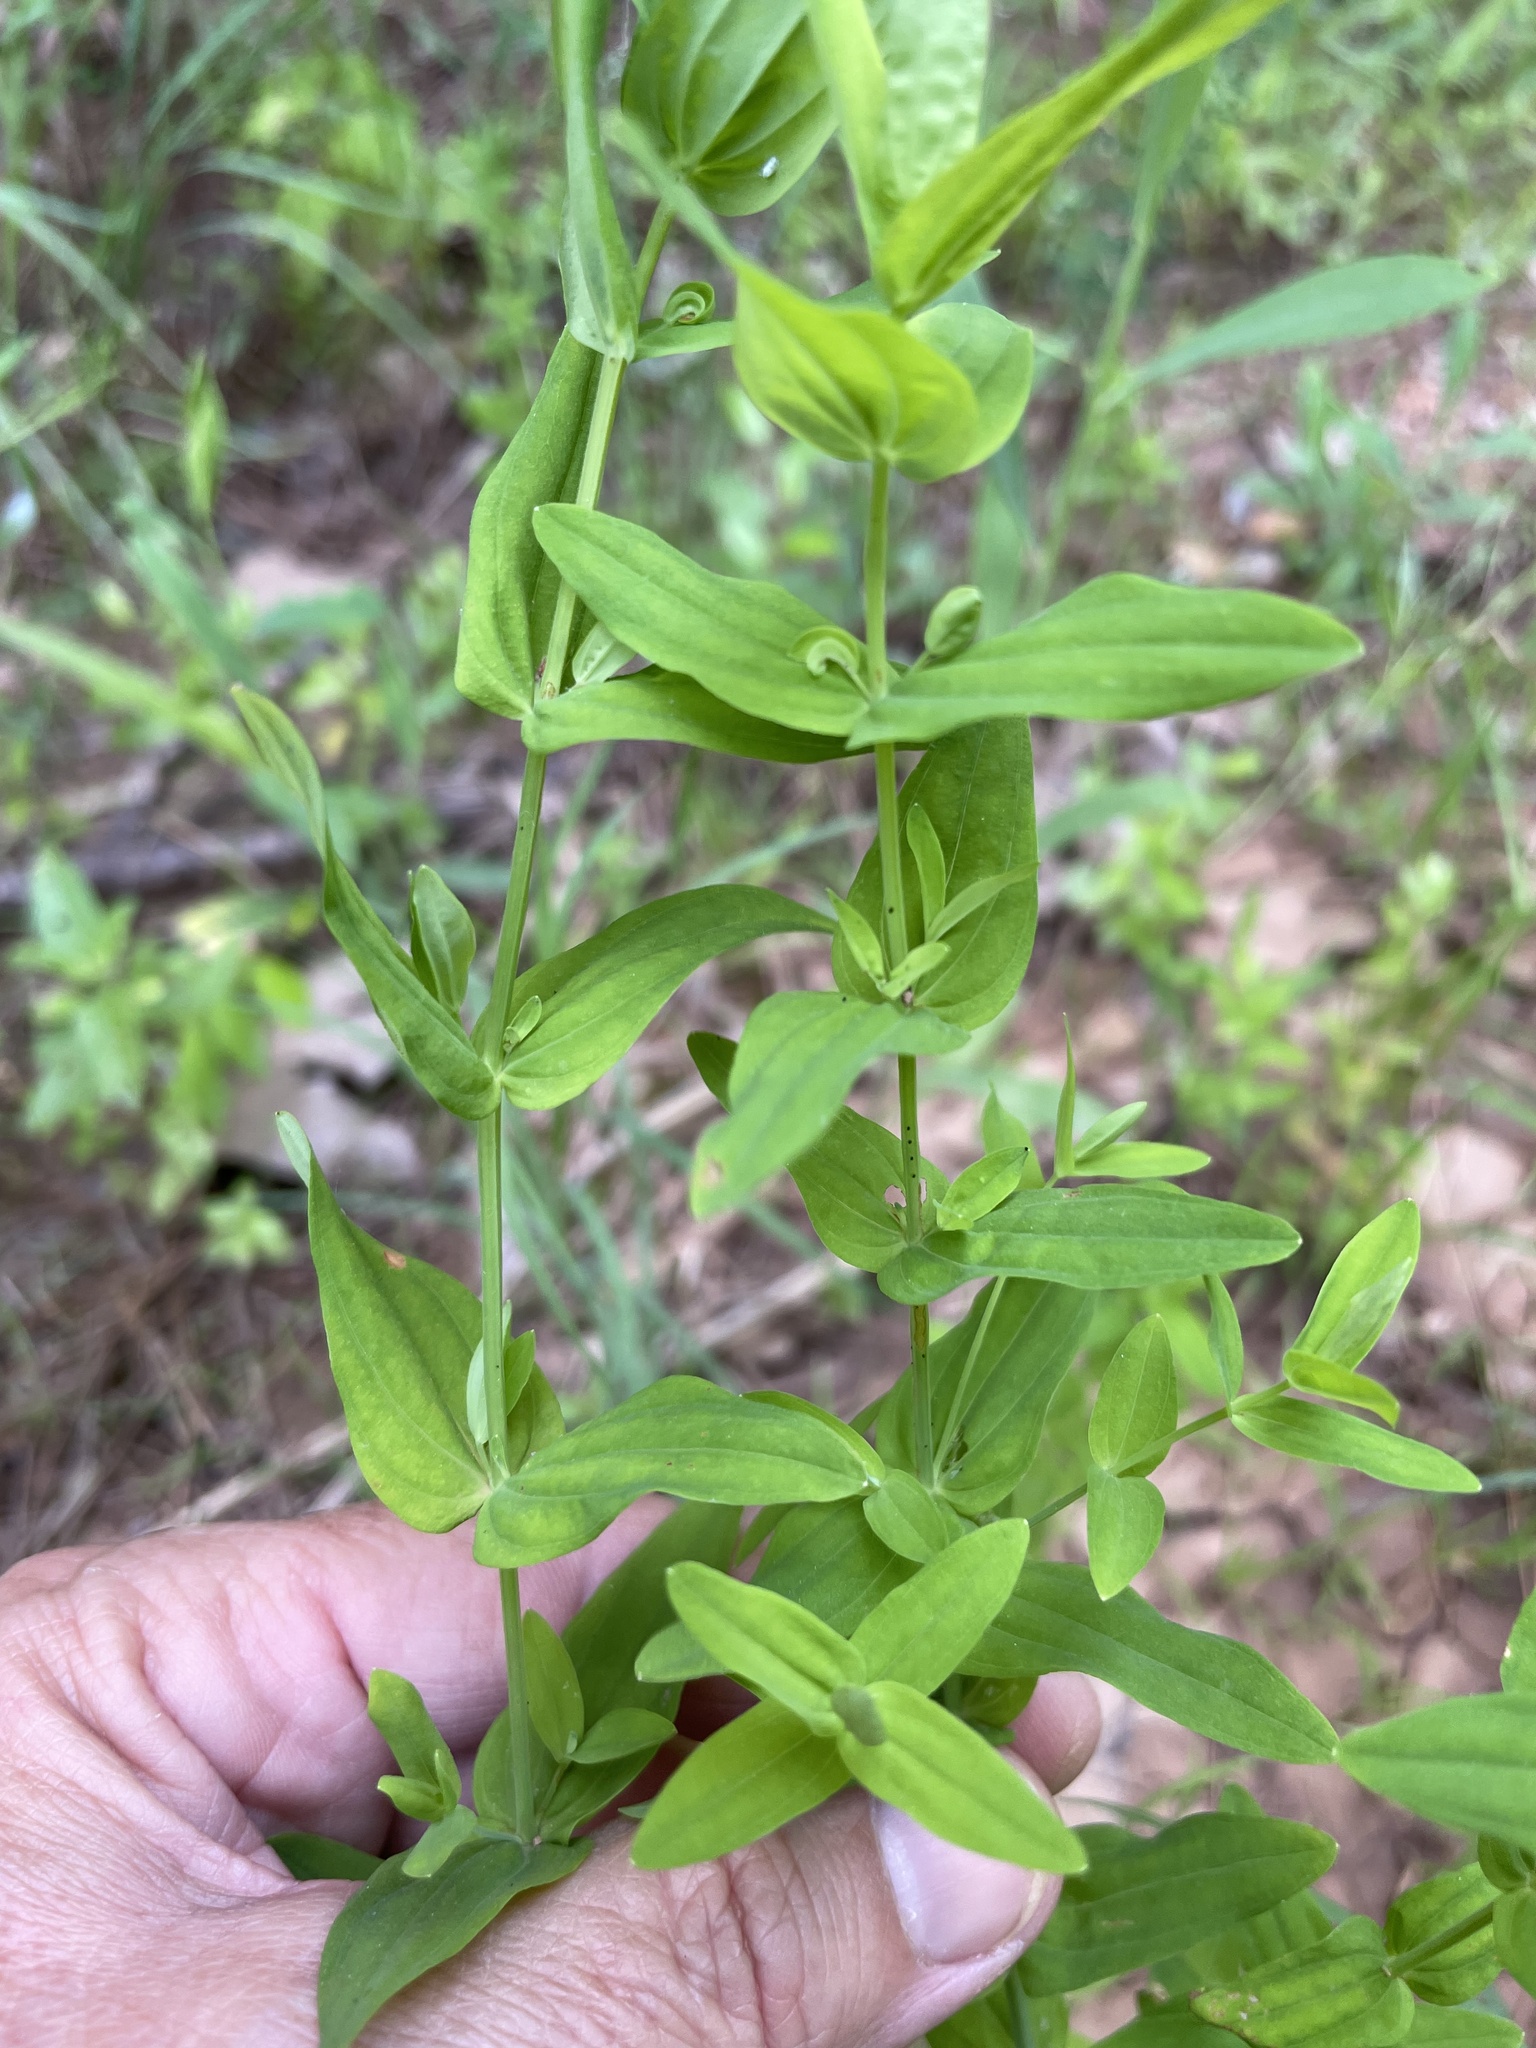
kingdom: Plantae
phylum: Tracheophyta
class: Magnoliopsida
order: Malpighiales
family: Hypericaceae
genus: Hypericum
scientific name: Hypericum gymnanthum
